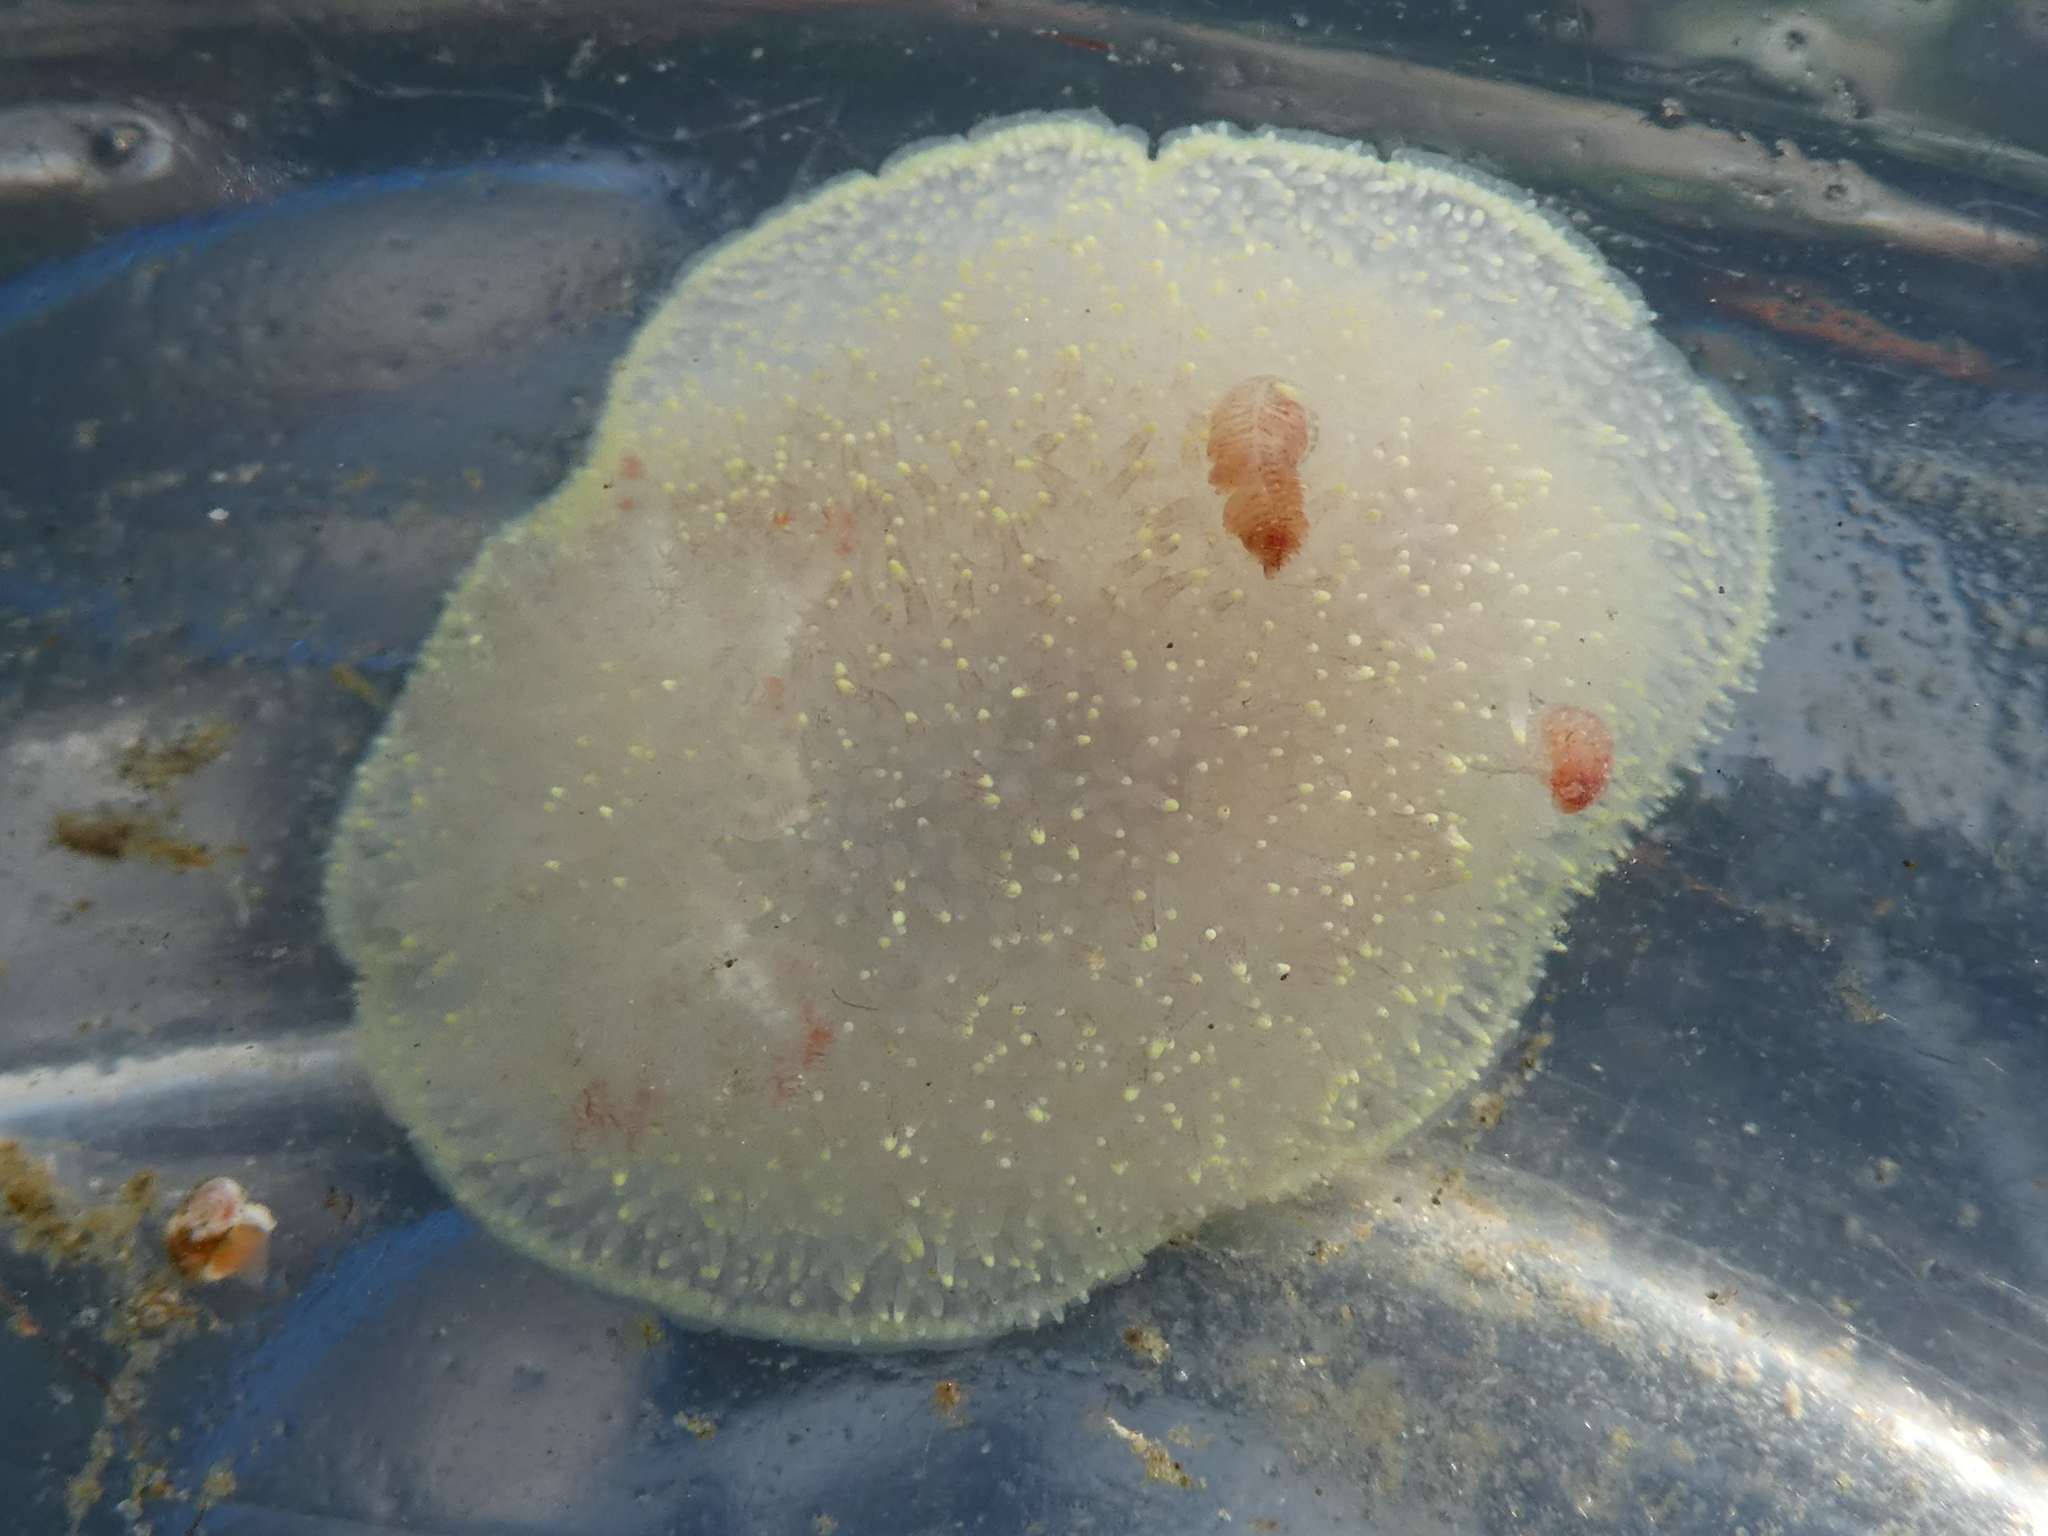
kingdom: Animalia
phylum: Mollusca
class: Gastropoda
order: Nudibranchia
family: Onchidorididae
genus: Acanthodoris
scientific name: Acanthodoris nanaimoensis
